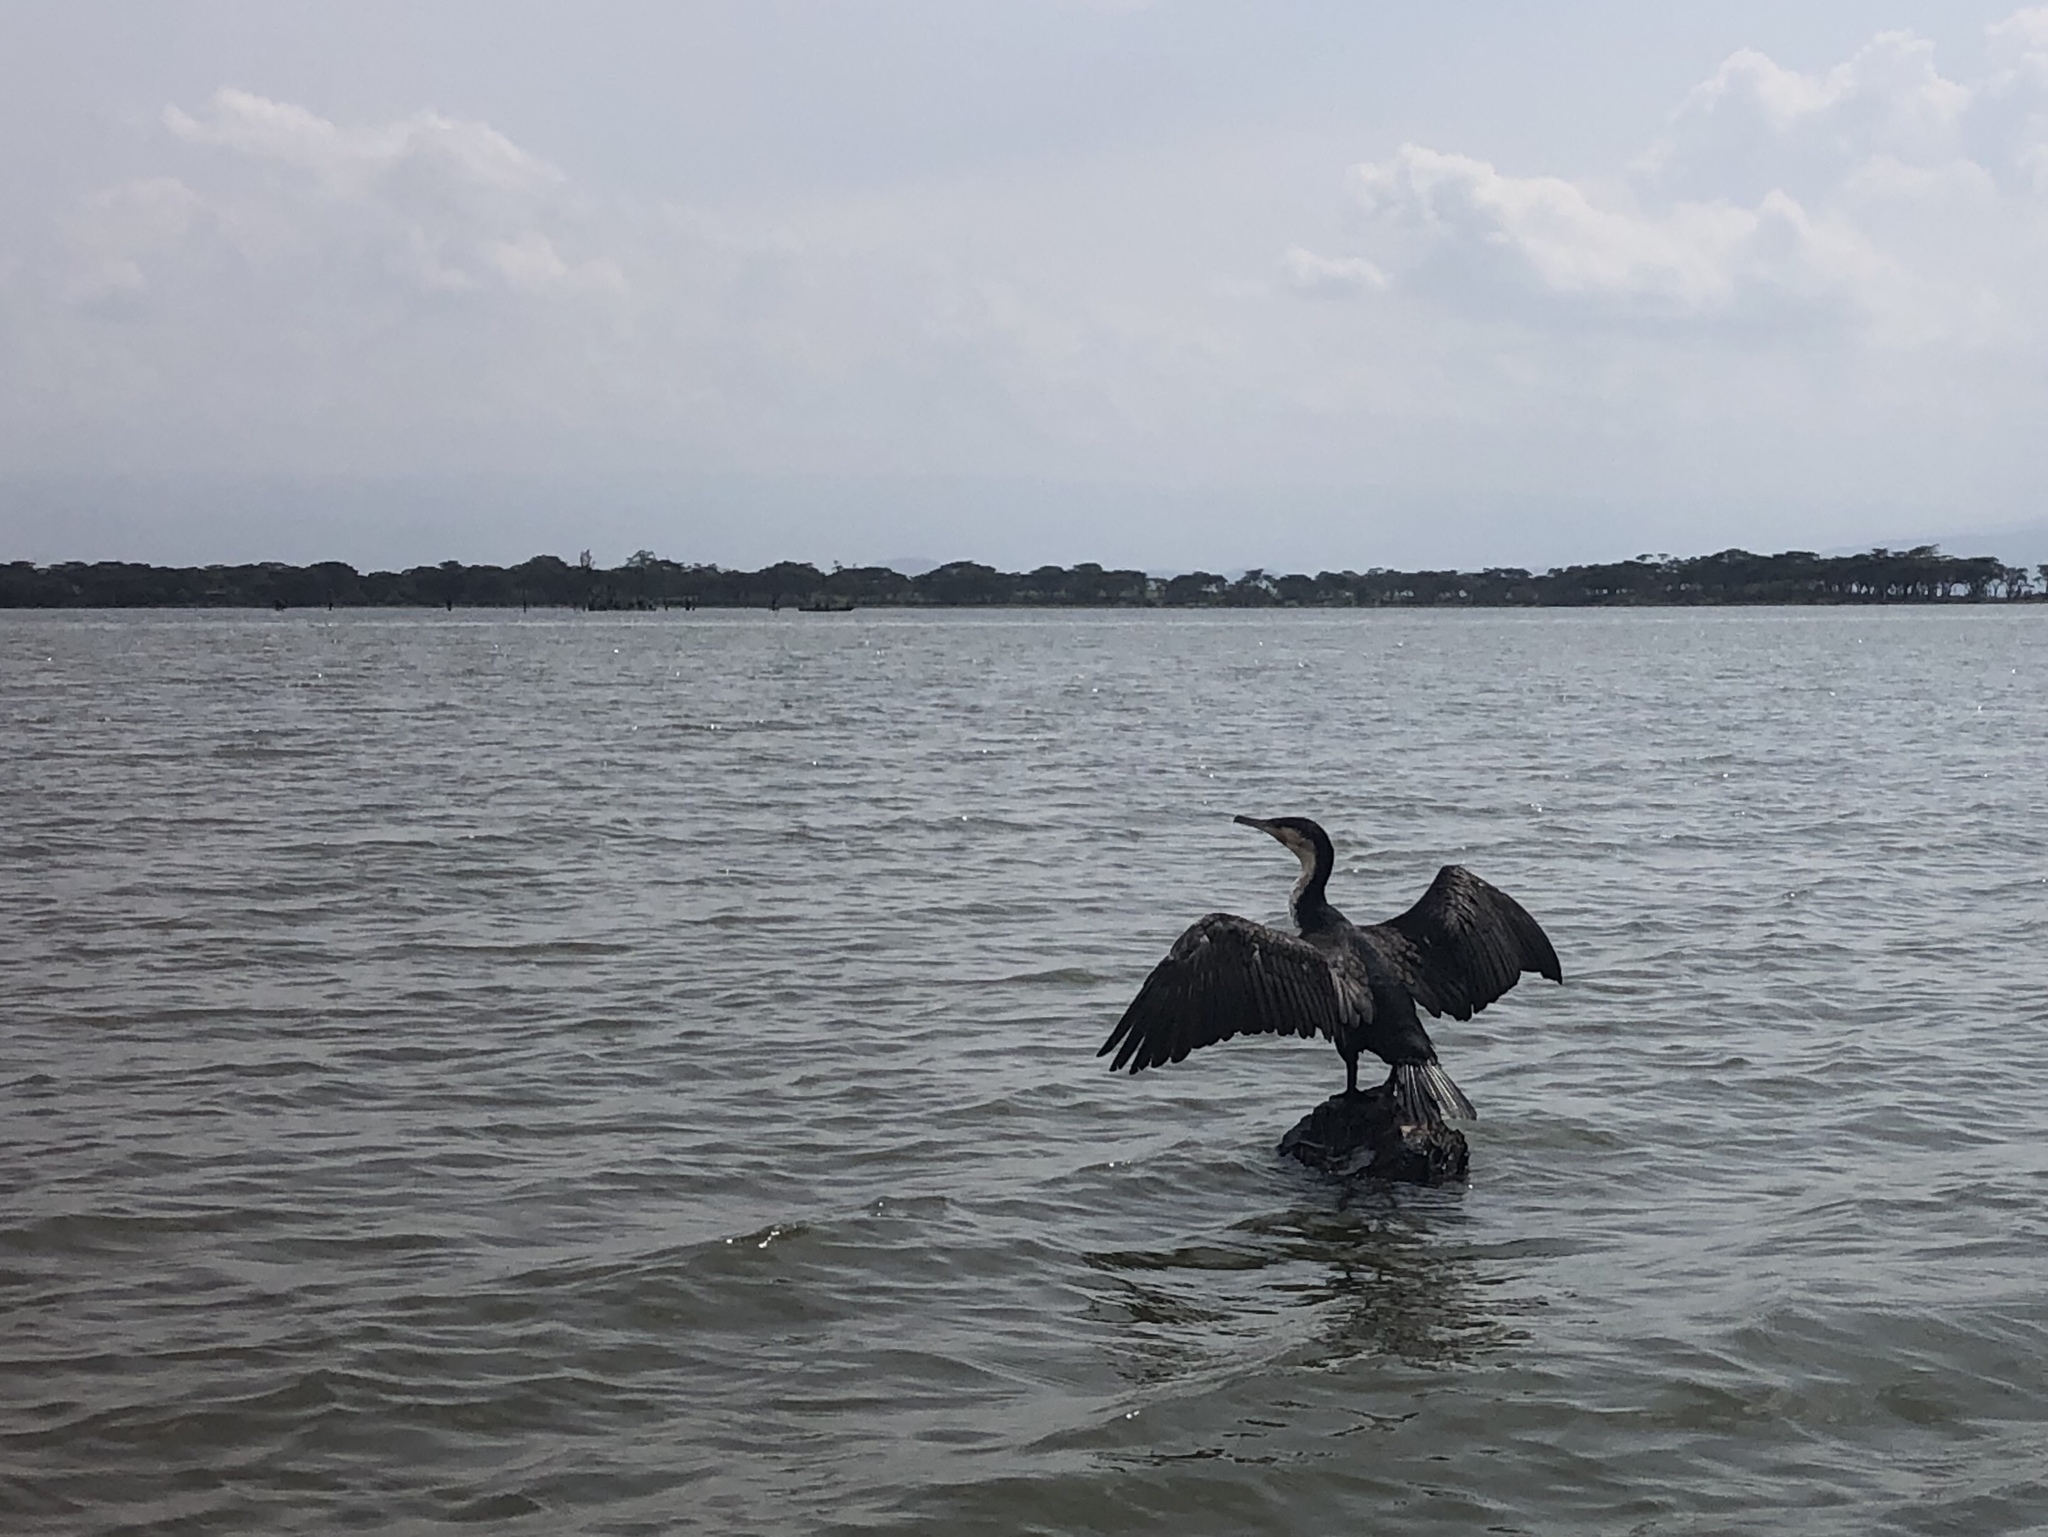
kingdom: Animalia
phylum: Chordata
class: Aves
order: Suliformes
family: Phalacrocoracidae
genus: Phalacrocorax
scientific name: Phalacrocorax carbo
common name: Great cormorant
